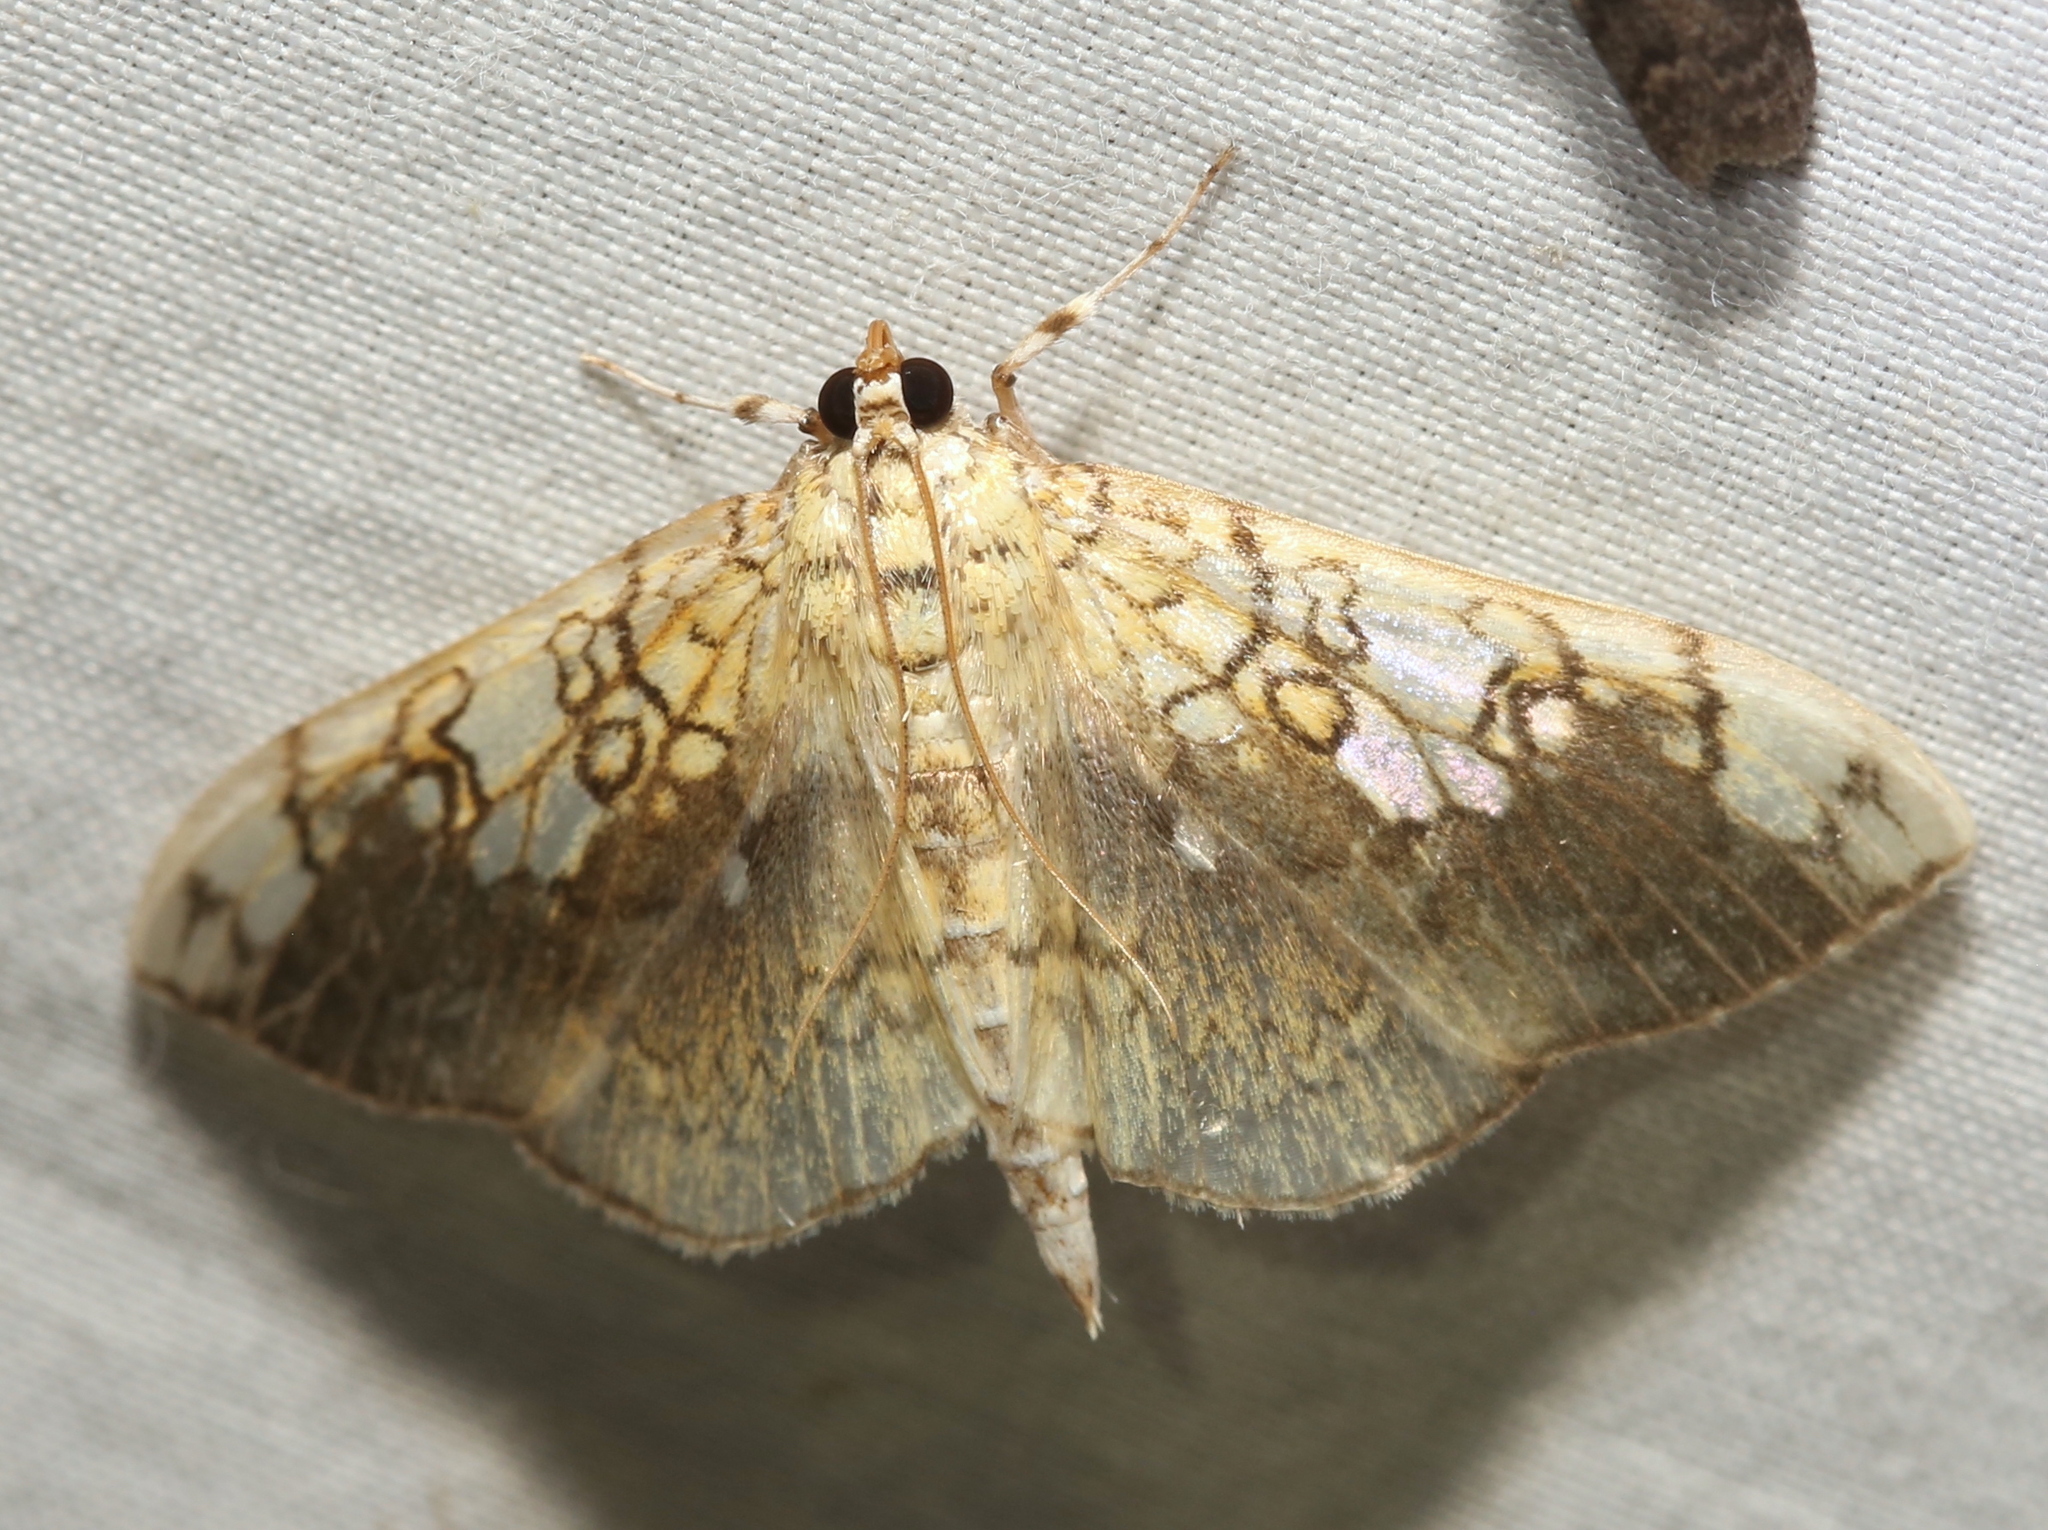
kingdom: Animalia
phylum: Arthropoda
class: Insecta
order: Lepidoptera
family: Crambidae
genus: Pantographa
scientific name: Pantographa limata
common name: Basswood leafroller moth
